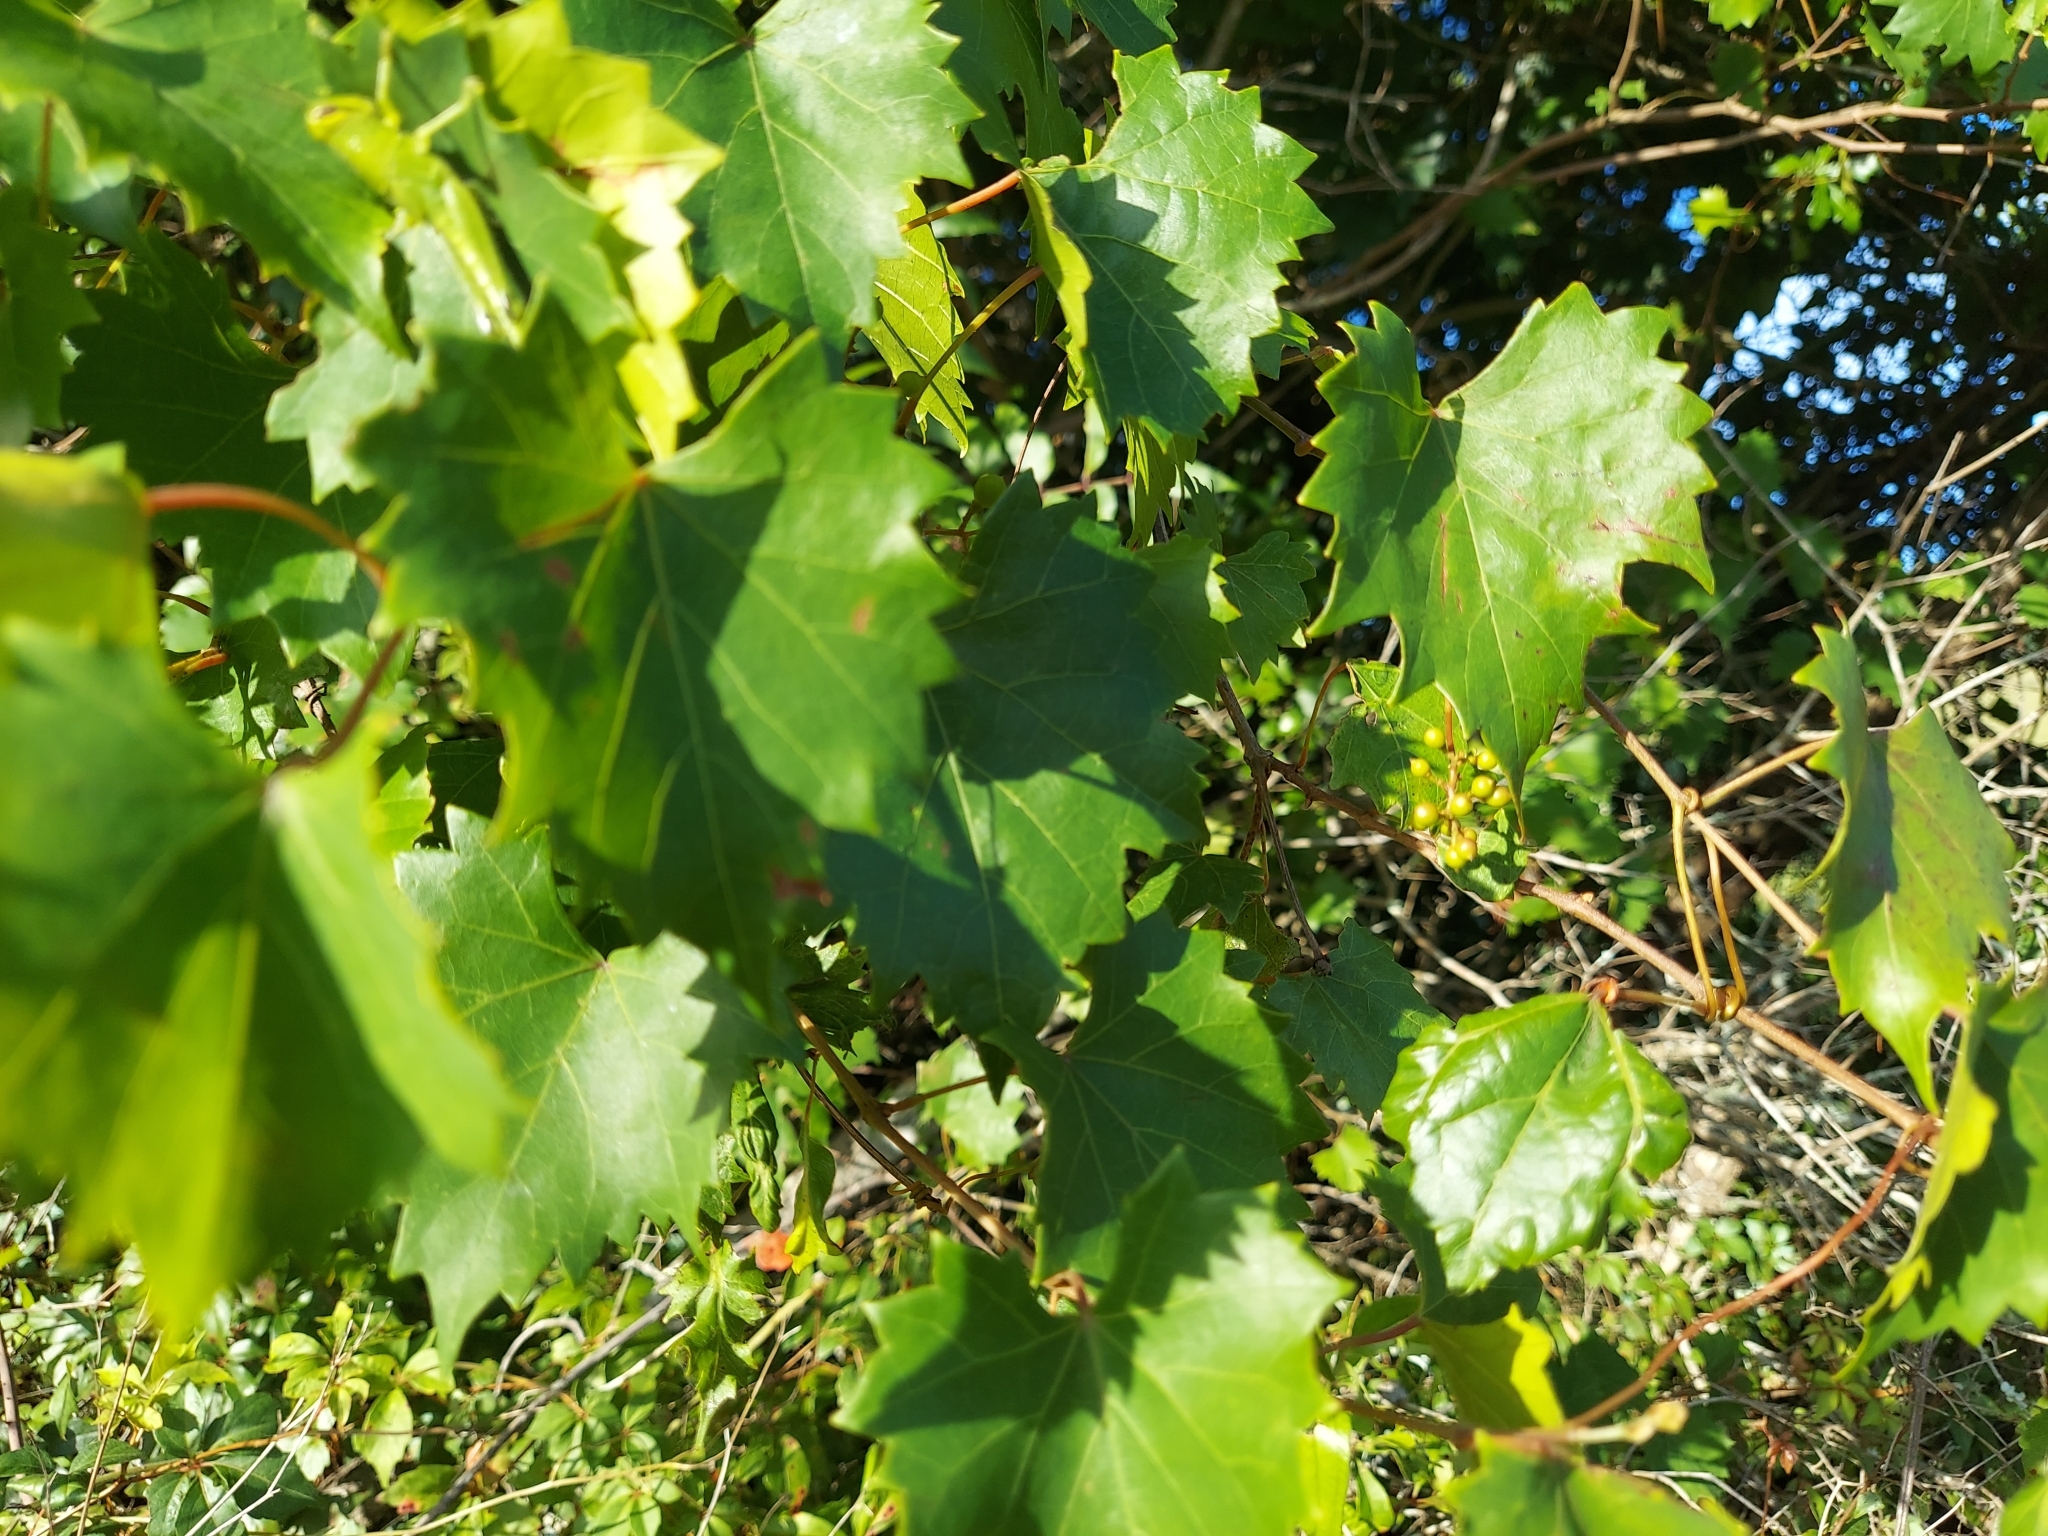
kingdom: Plantae
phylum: Tracheophyta
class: Magnoliopsida
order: Vitales
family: Vitaceae
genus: Vitis
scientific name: Vitis rotundifolia
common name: Muscadine grape
